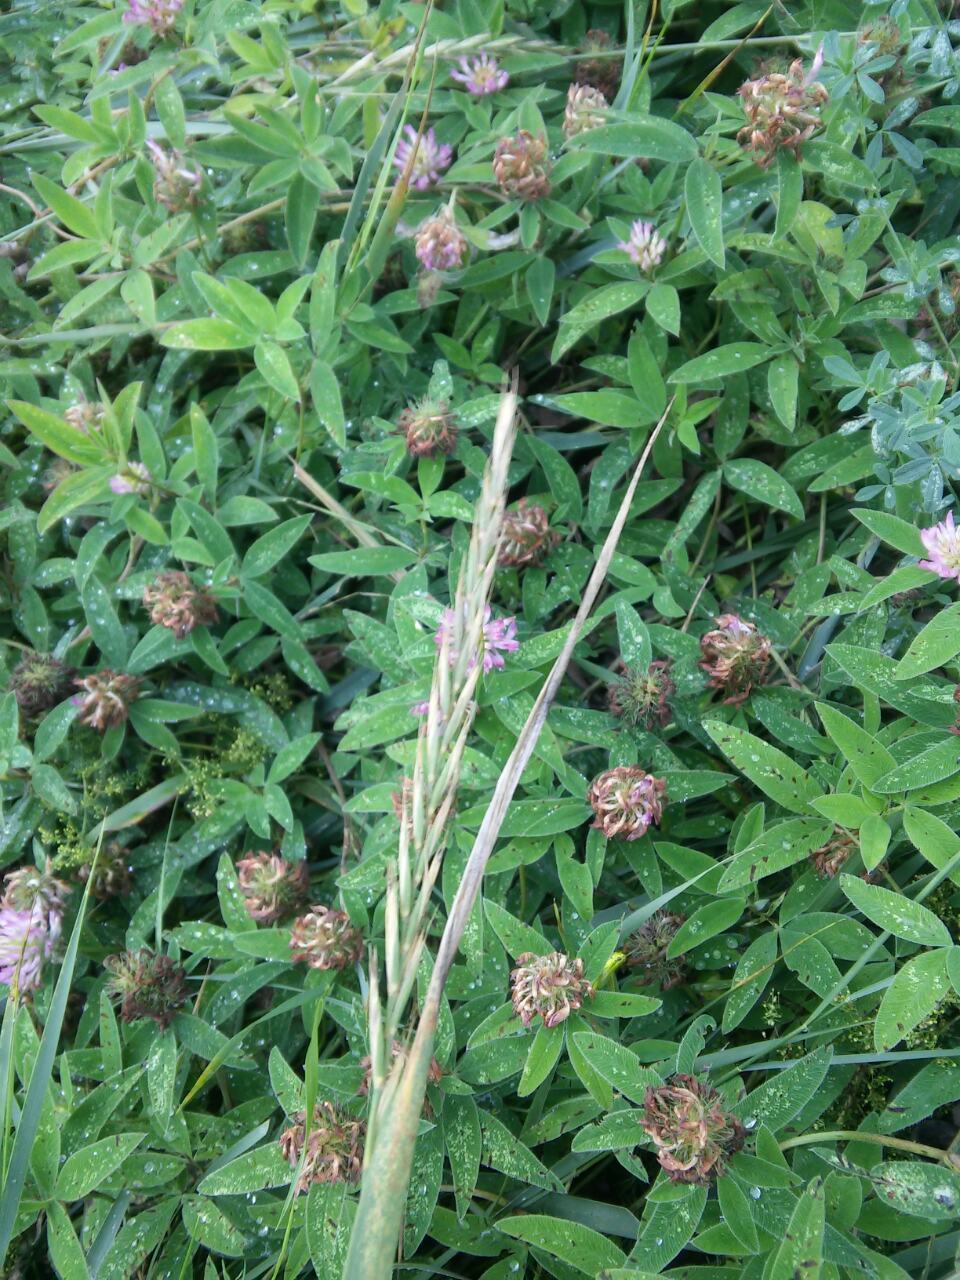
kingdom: Plantae
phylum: Tracheophyta
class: Liliopsida
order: Poales
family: Poaceae
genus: Elymus
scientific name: Elymus repens
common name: Quackgrass
